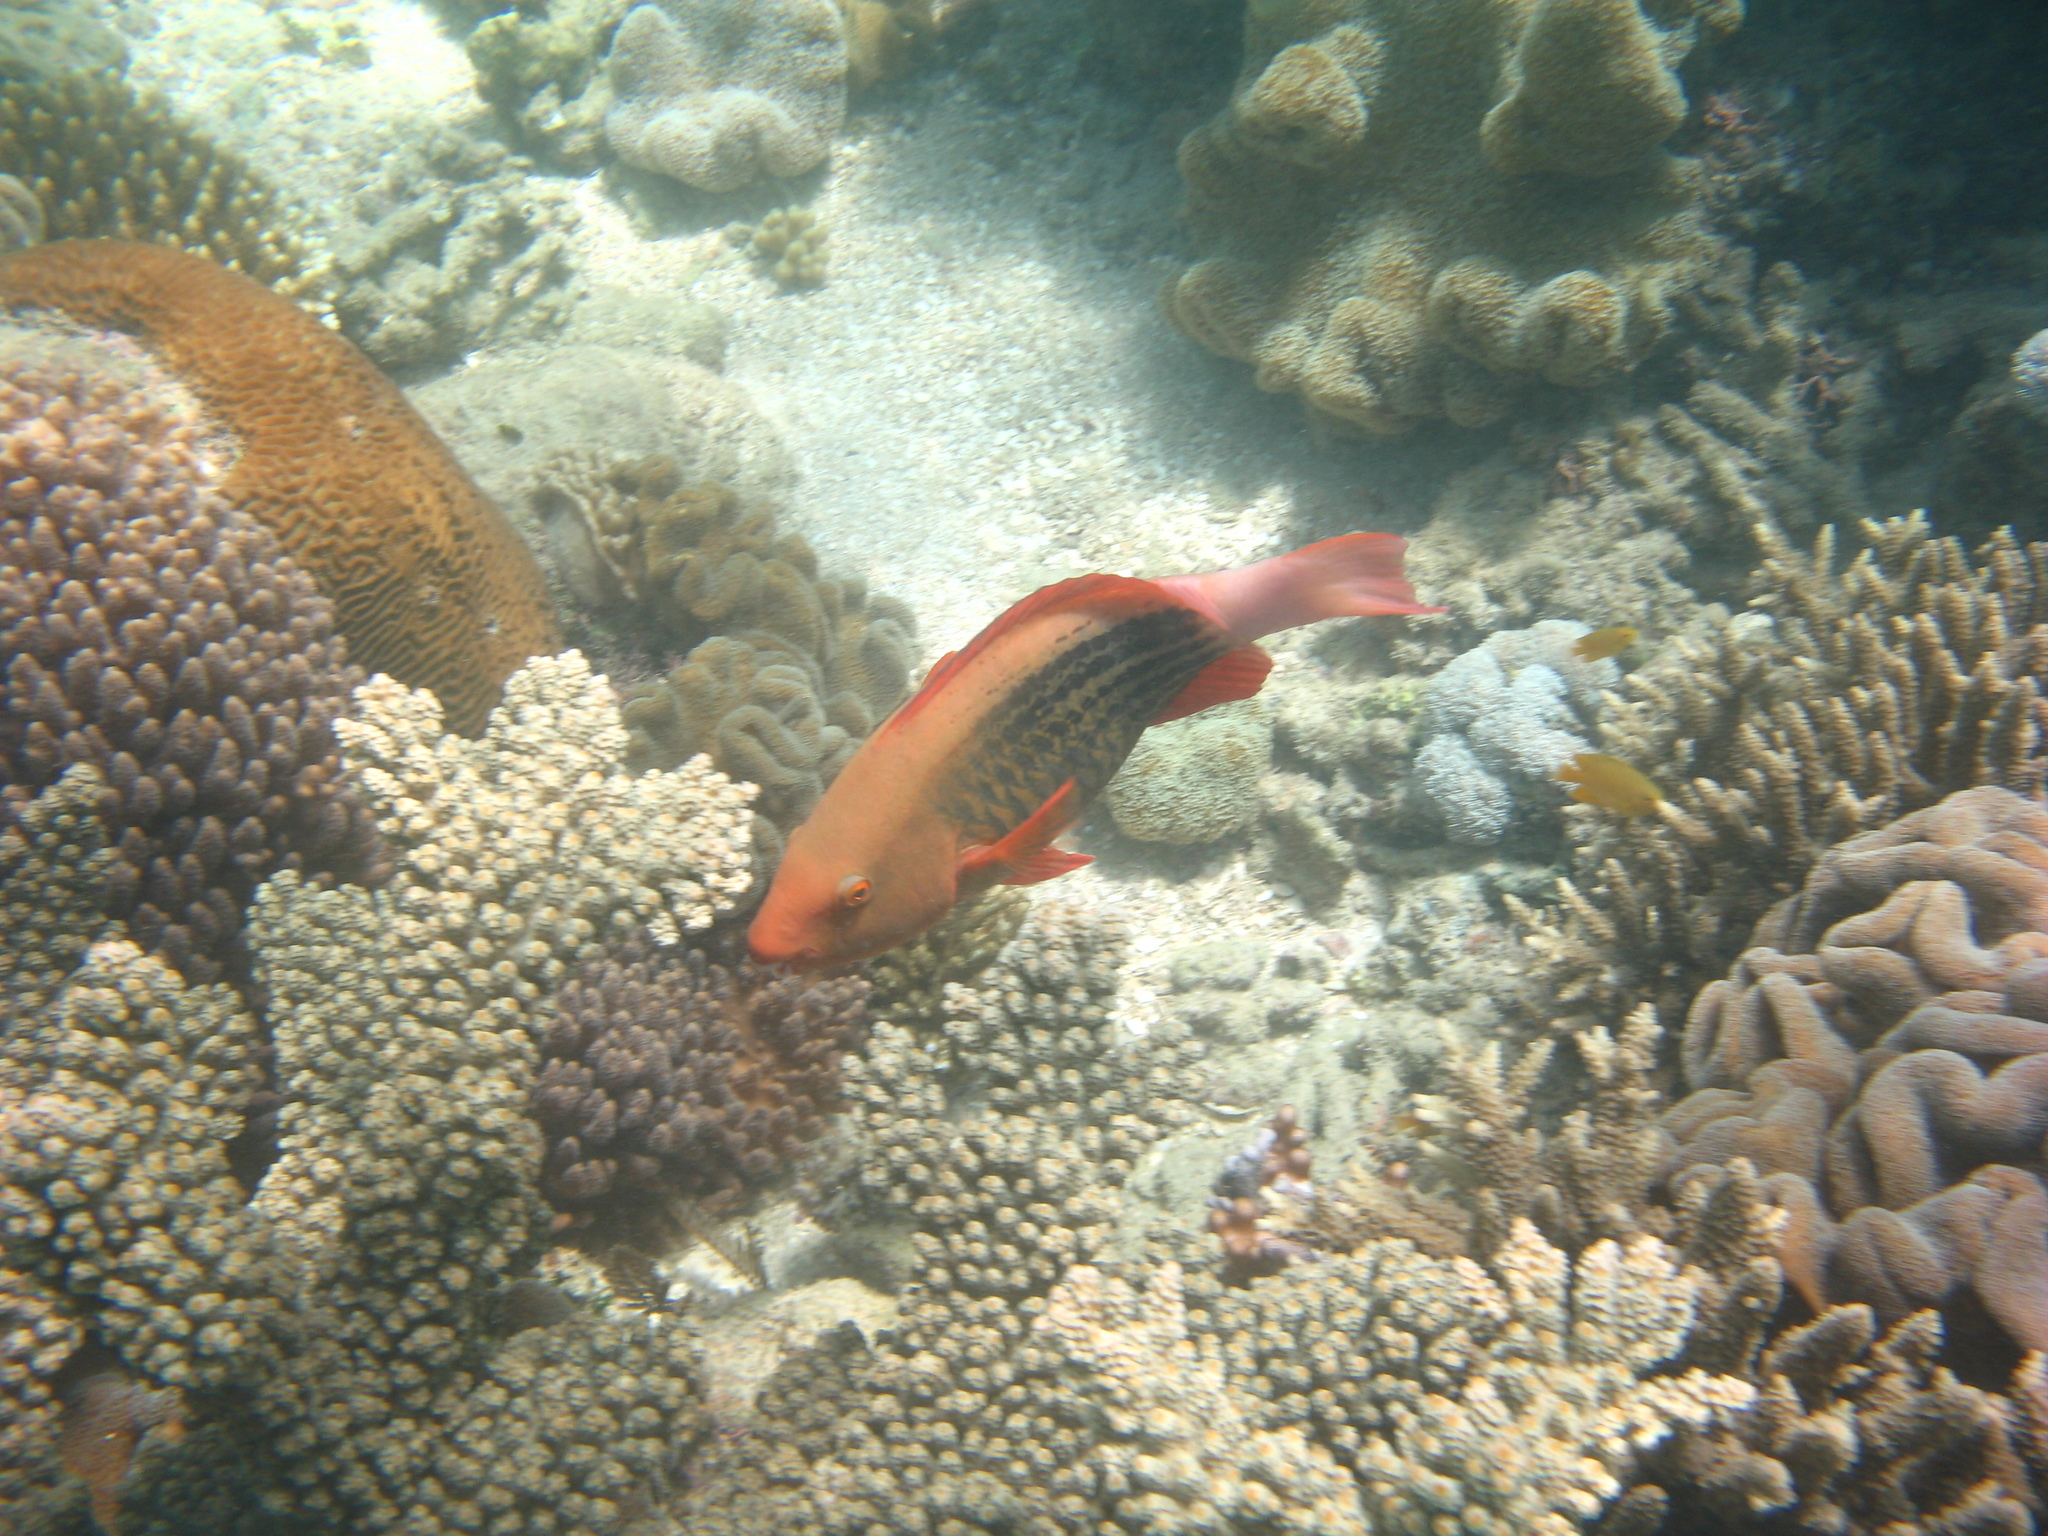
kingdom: Animalia
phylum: Chordata
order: Perciformes
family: Scaridae
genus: Scarus
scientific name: Scarus frenatus
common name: Bridled parrotfish
